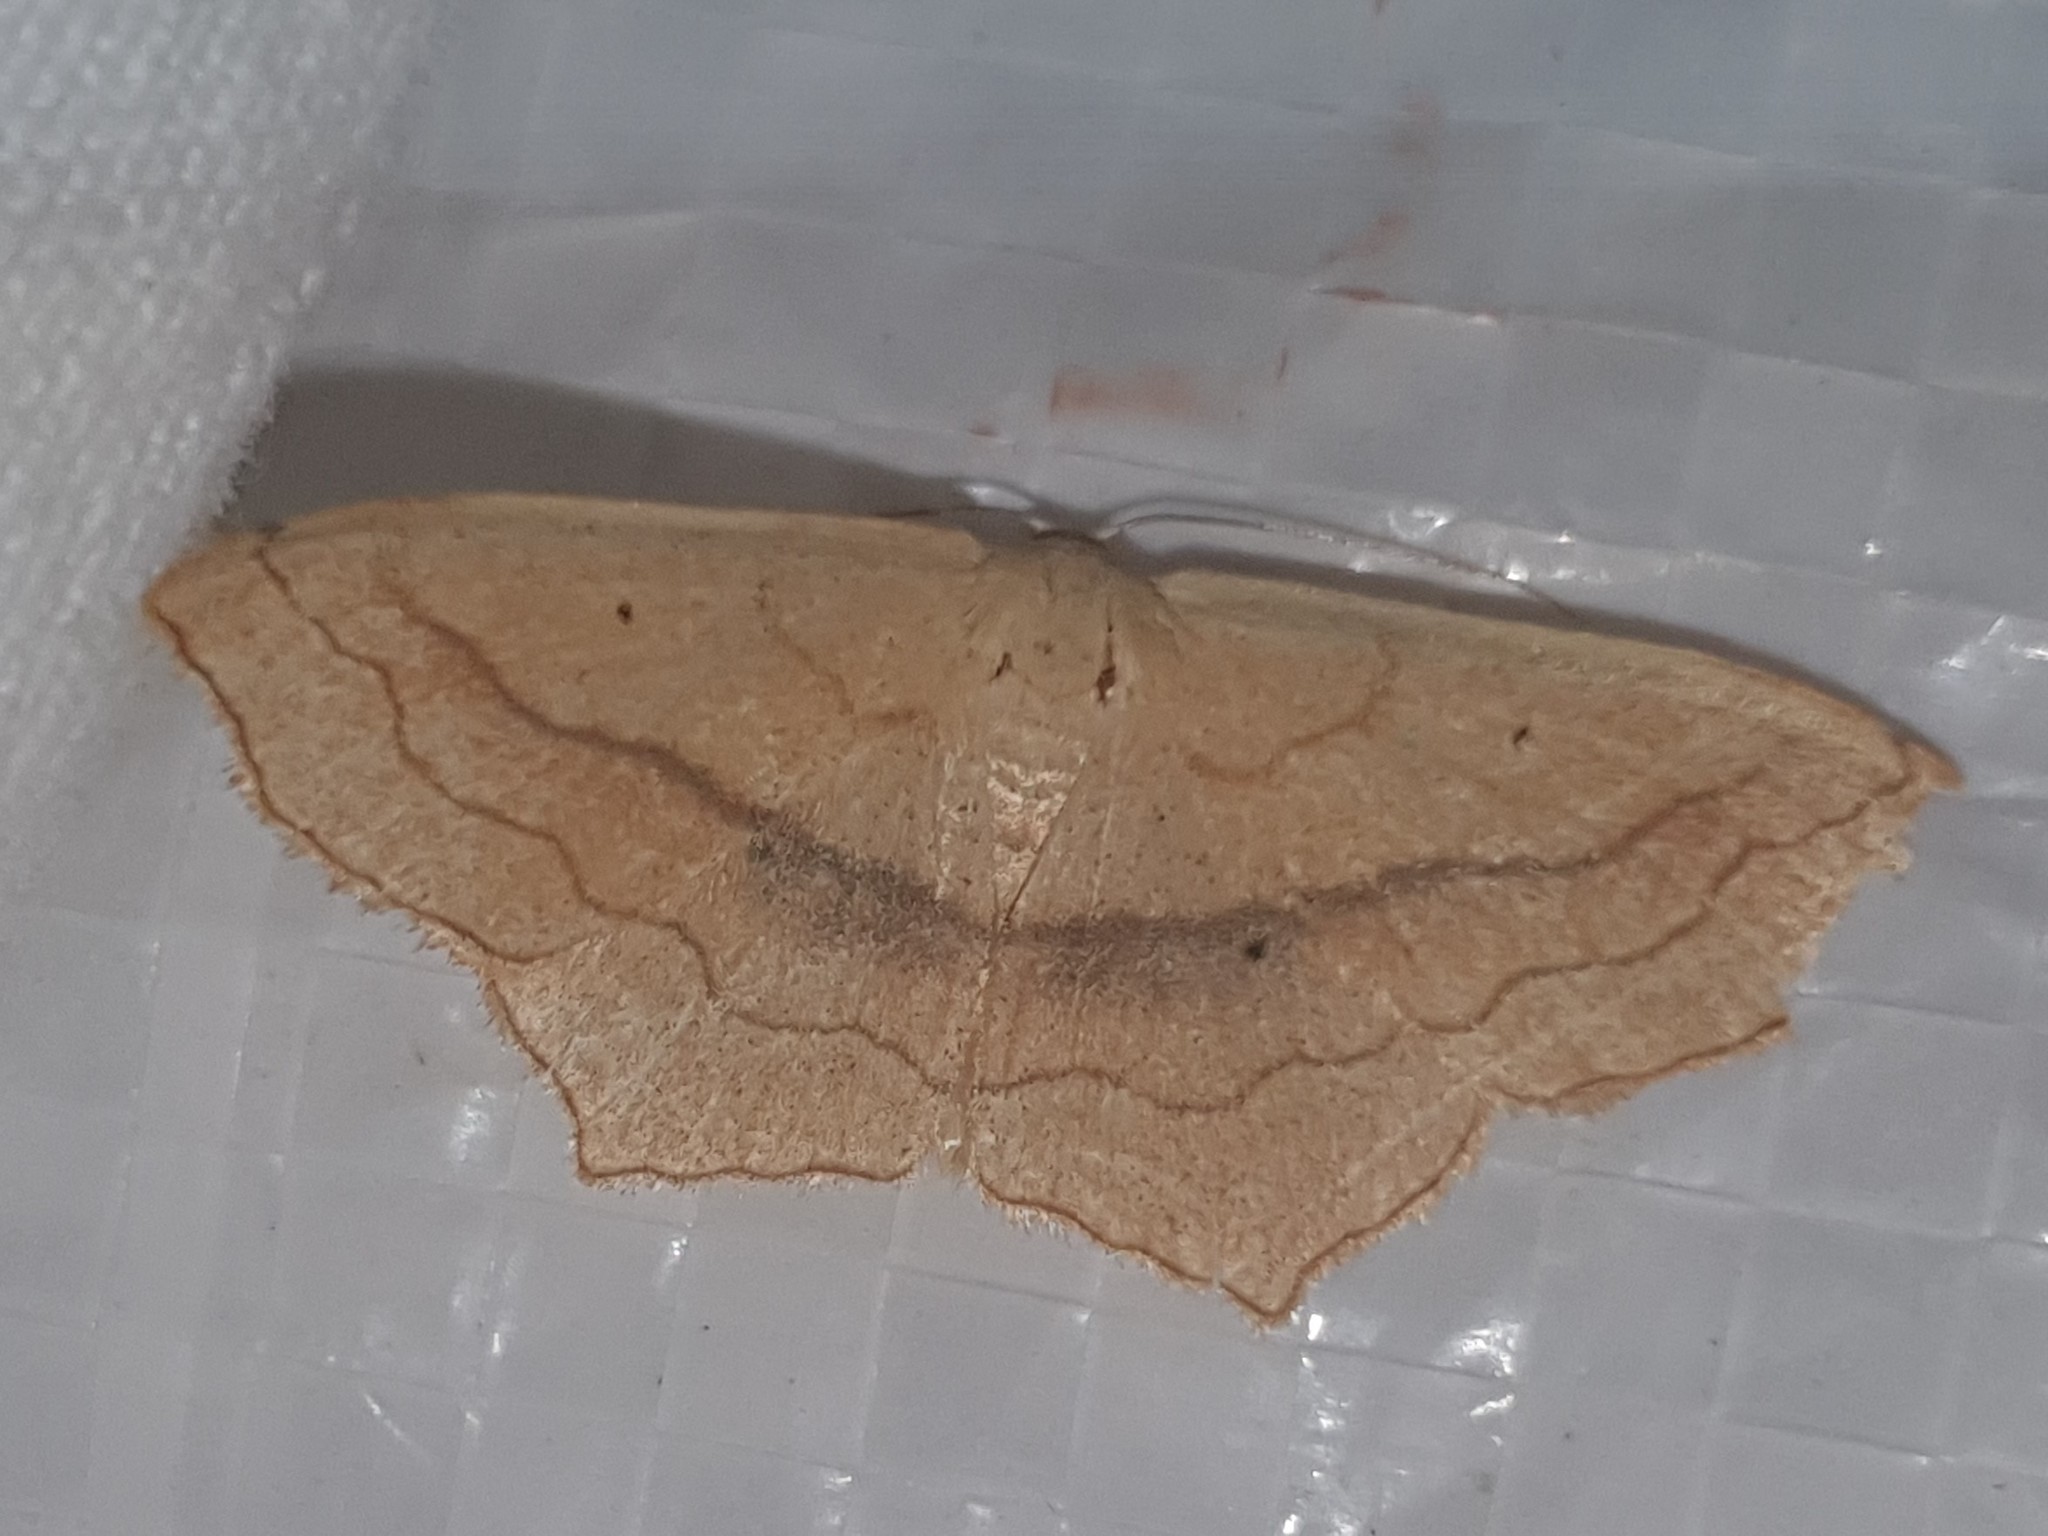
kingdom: Animalia
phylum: Arthropoda
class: Insecta
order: Lepidoptera
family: Geometridae
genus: Scopula
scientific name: Scopula imitaria
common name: Small blood-vein
